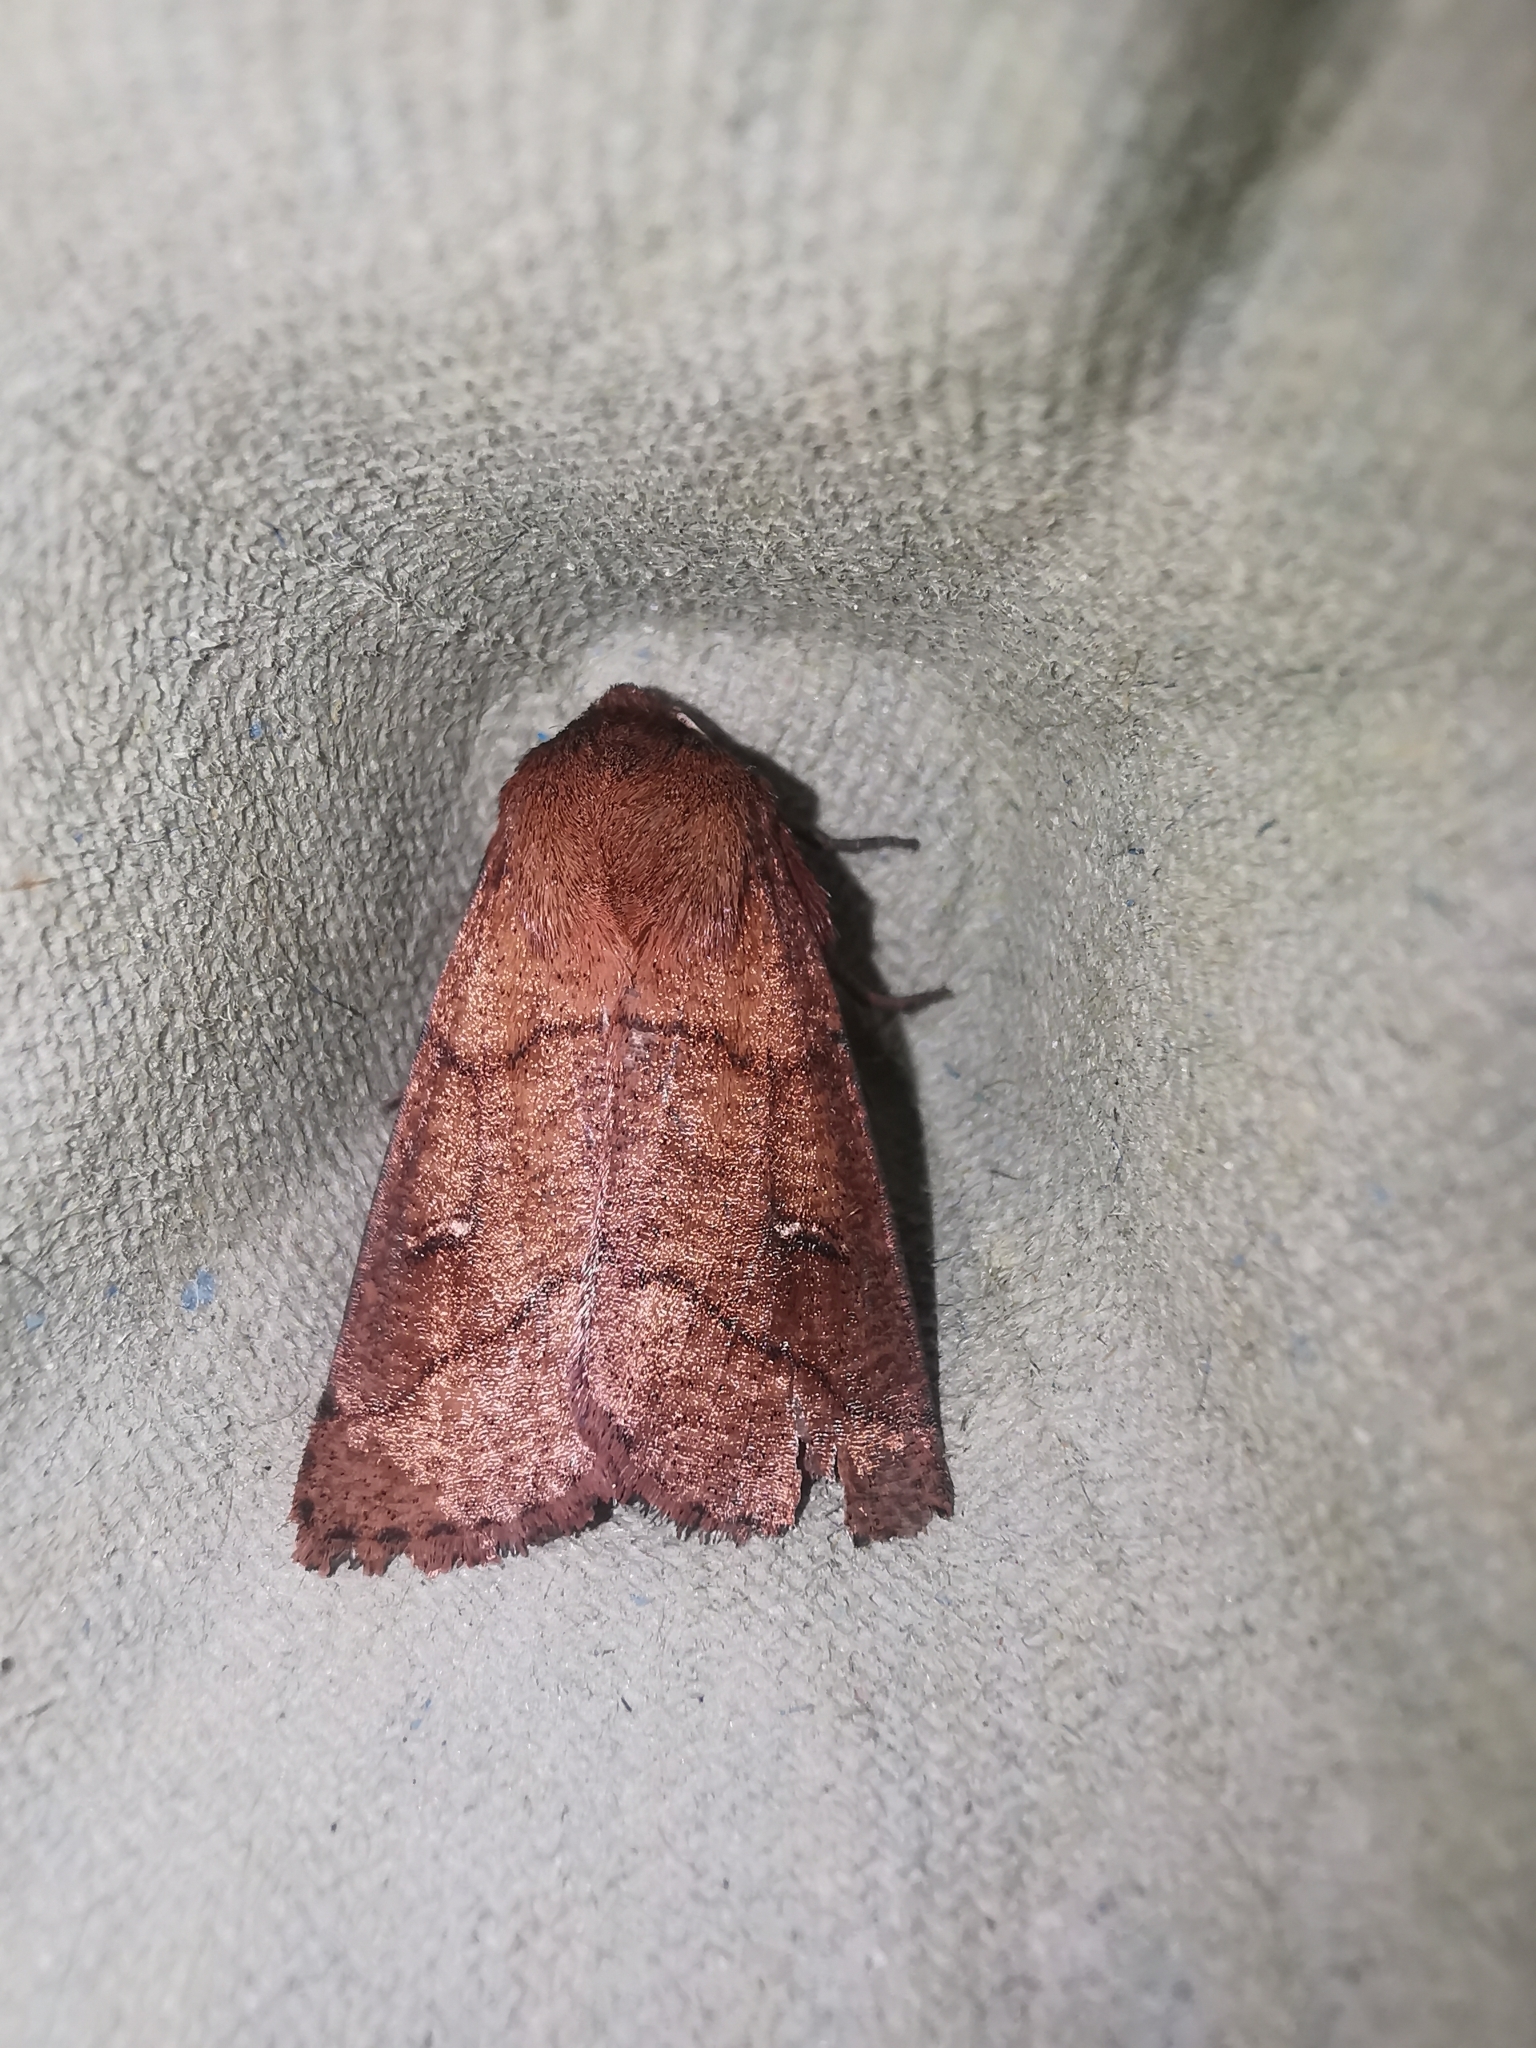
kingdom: Animalia
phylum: Arthropoda
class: Insecta
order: Lepidoptera
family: Noctuidae
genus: Mythimna
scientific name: Mythimna turca
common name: Double line
